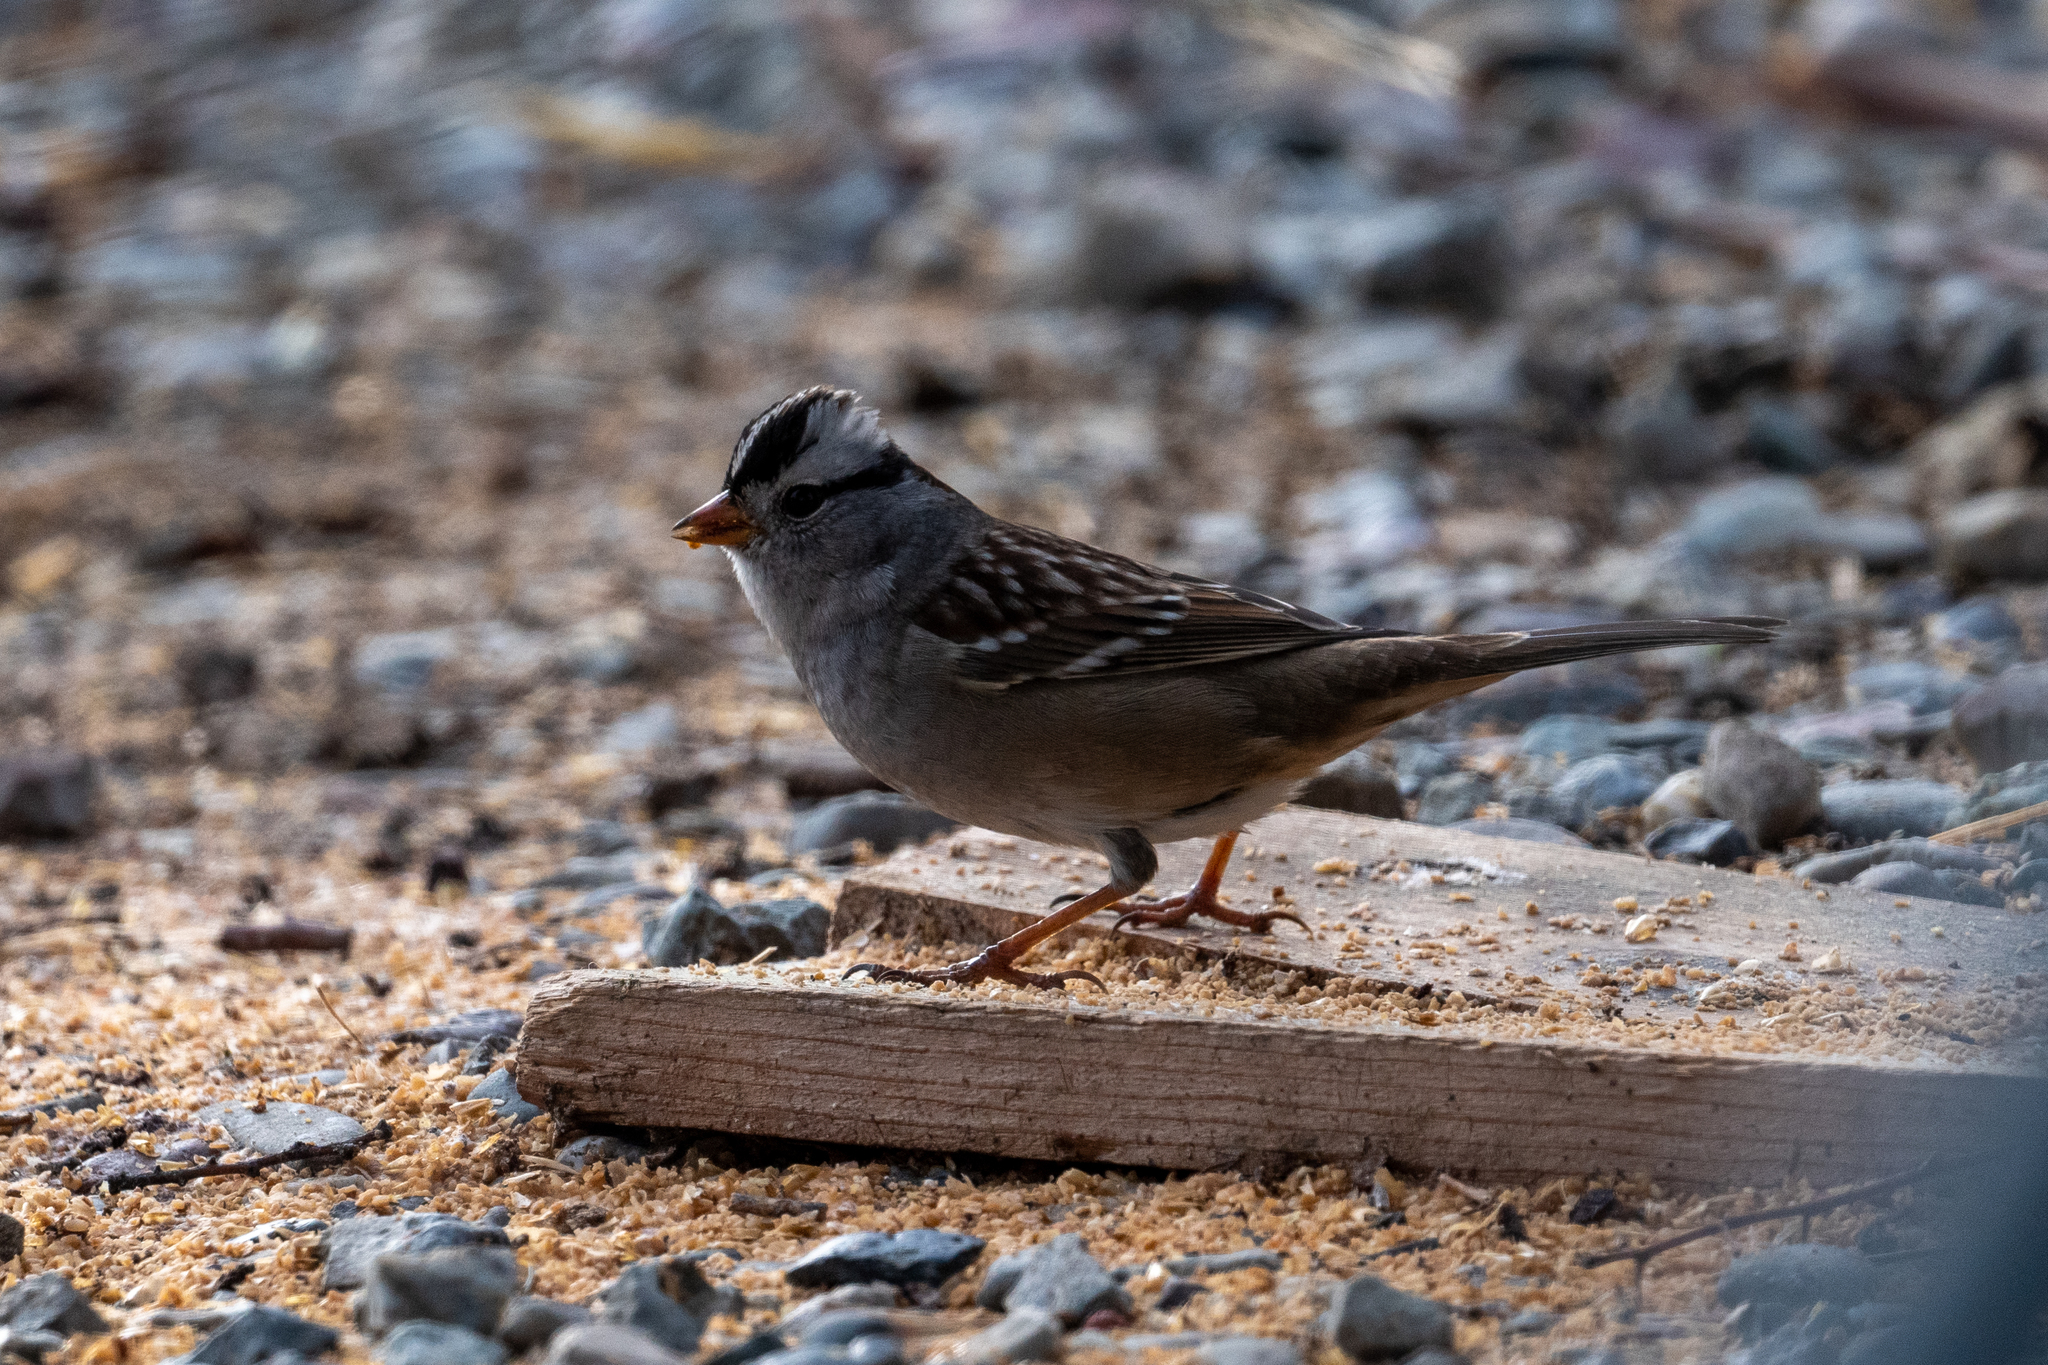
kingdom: Animalia
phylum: Chordata
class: Aves
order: Passeriformes
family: Passerellidae
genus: Zonotrichia
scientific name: Zonotrichia leucophrys
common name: White-crowned sparrow
